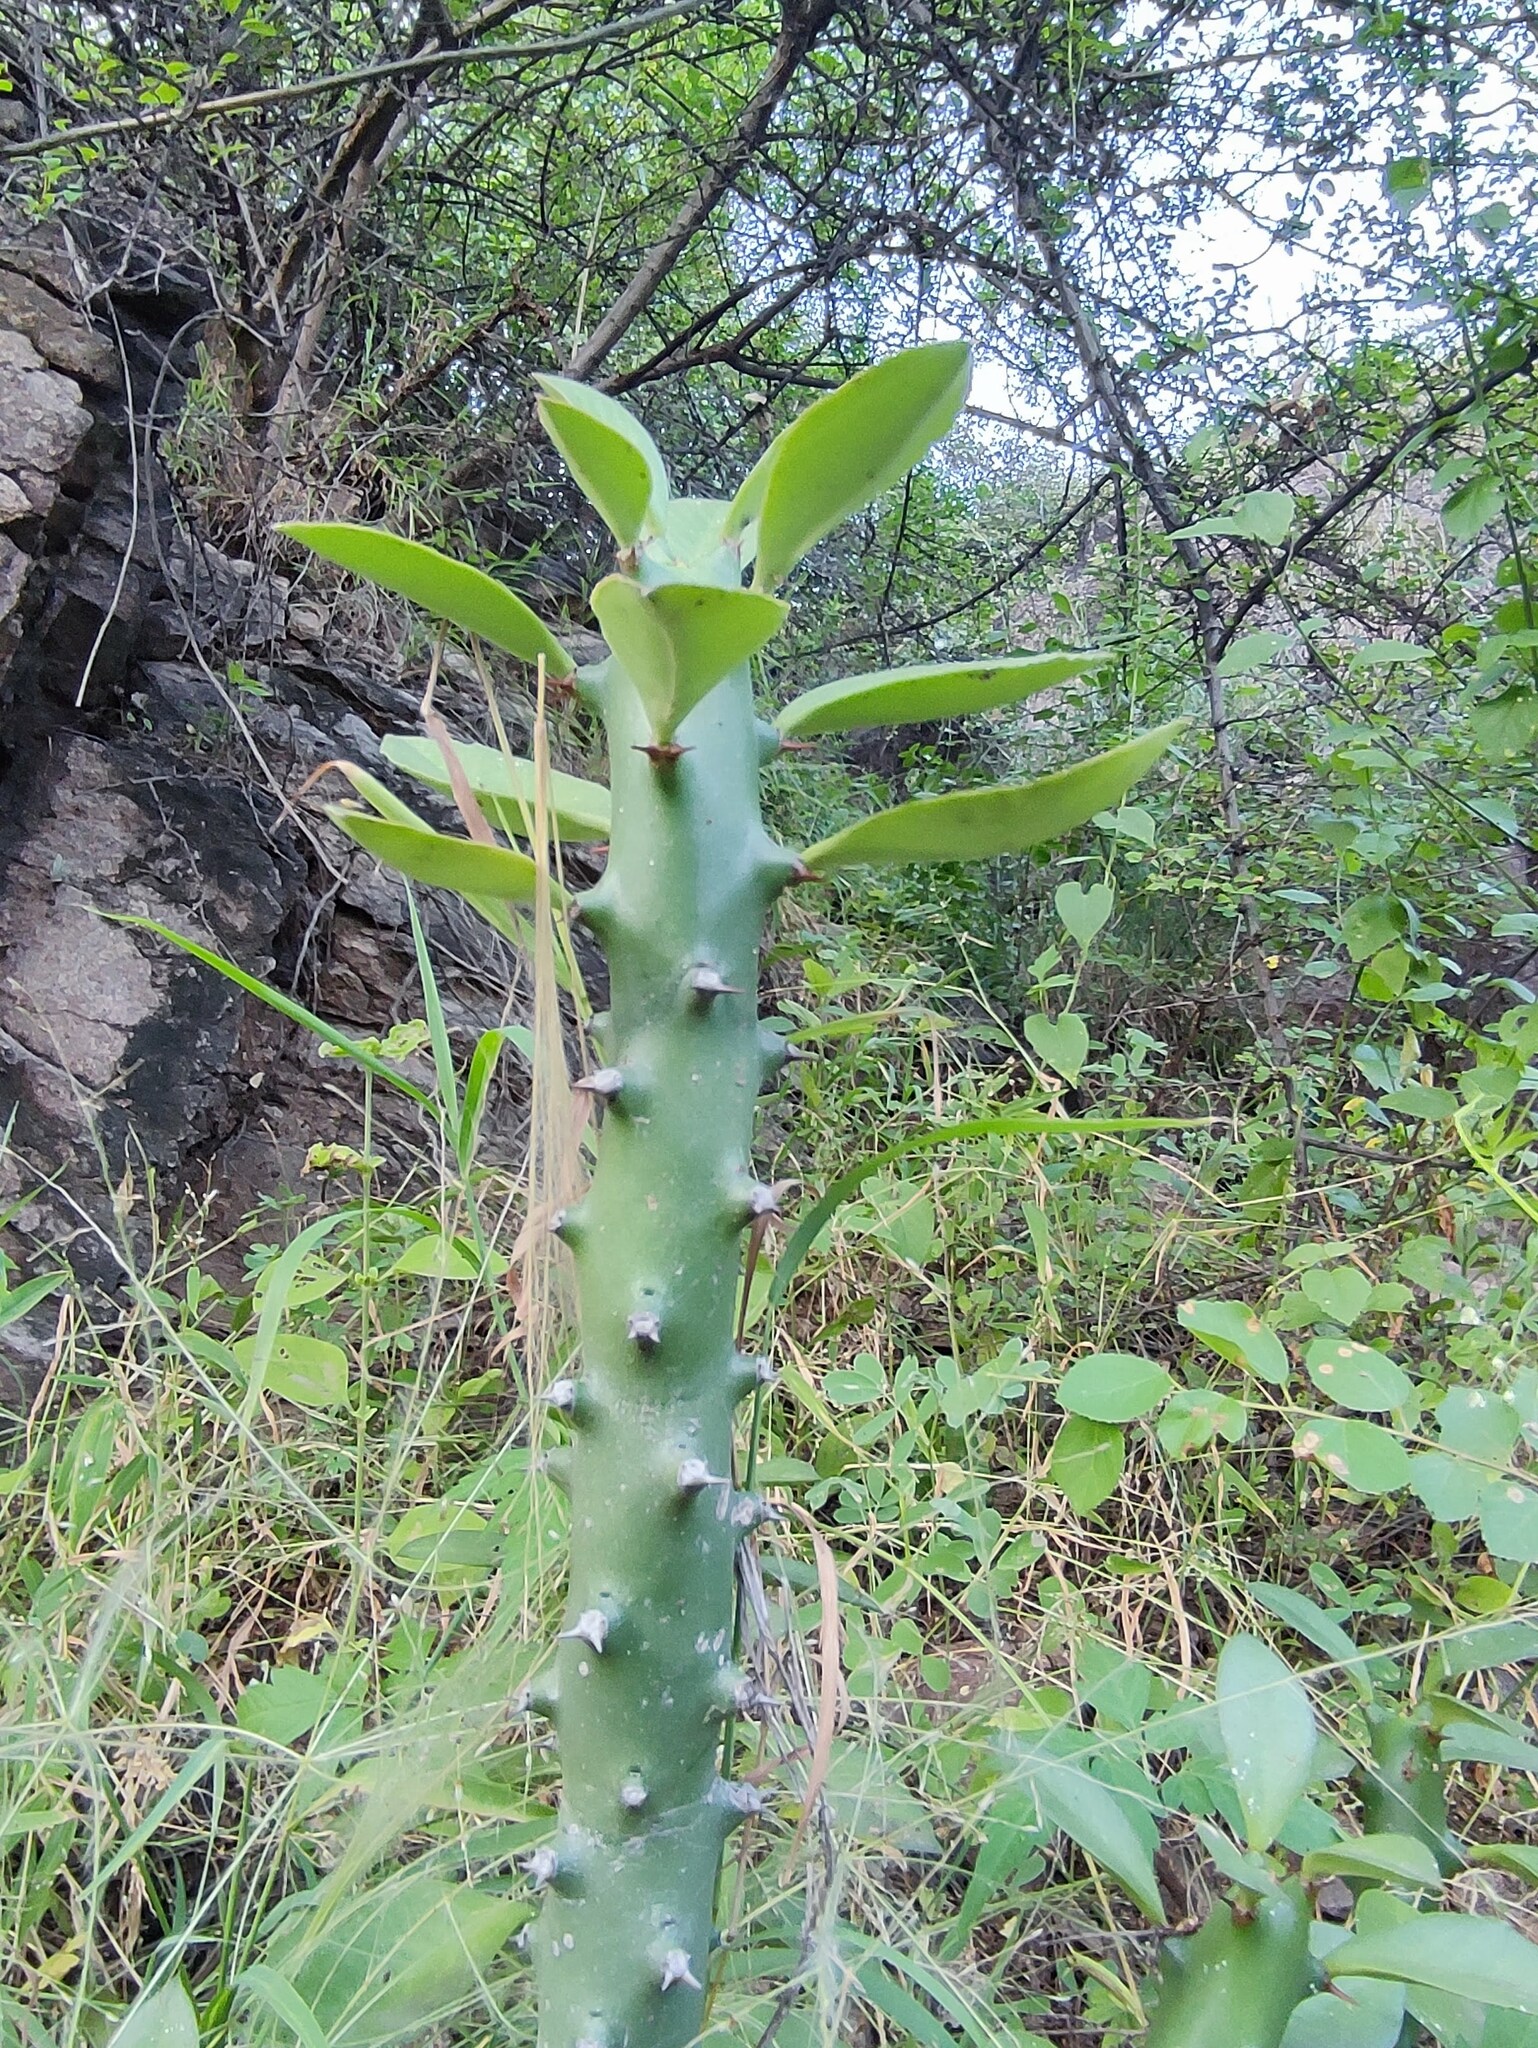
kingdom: Plantae
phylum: Tracheophyta
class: Magnoliopsida
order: Malpighiales
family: Euphorbiaceae
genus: Euphorbia
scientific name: Euphorbia caducifolia
